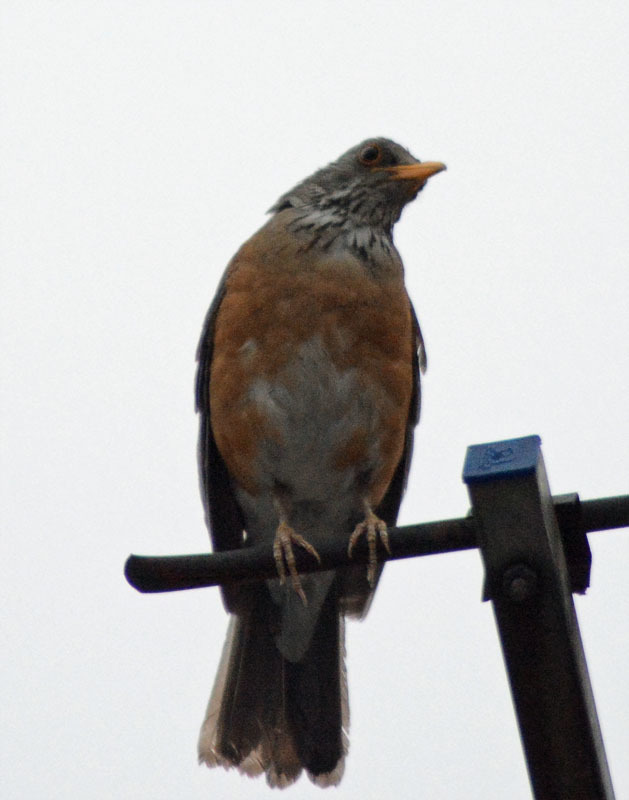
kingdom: Animalia
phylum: Chordata
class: Aves
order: Passeriformes
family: Turdidae
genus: Turdus
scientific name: Turdus rufopalliatus
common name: Rufous-backed robin
